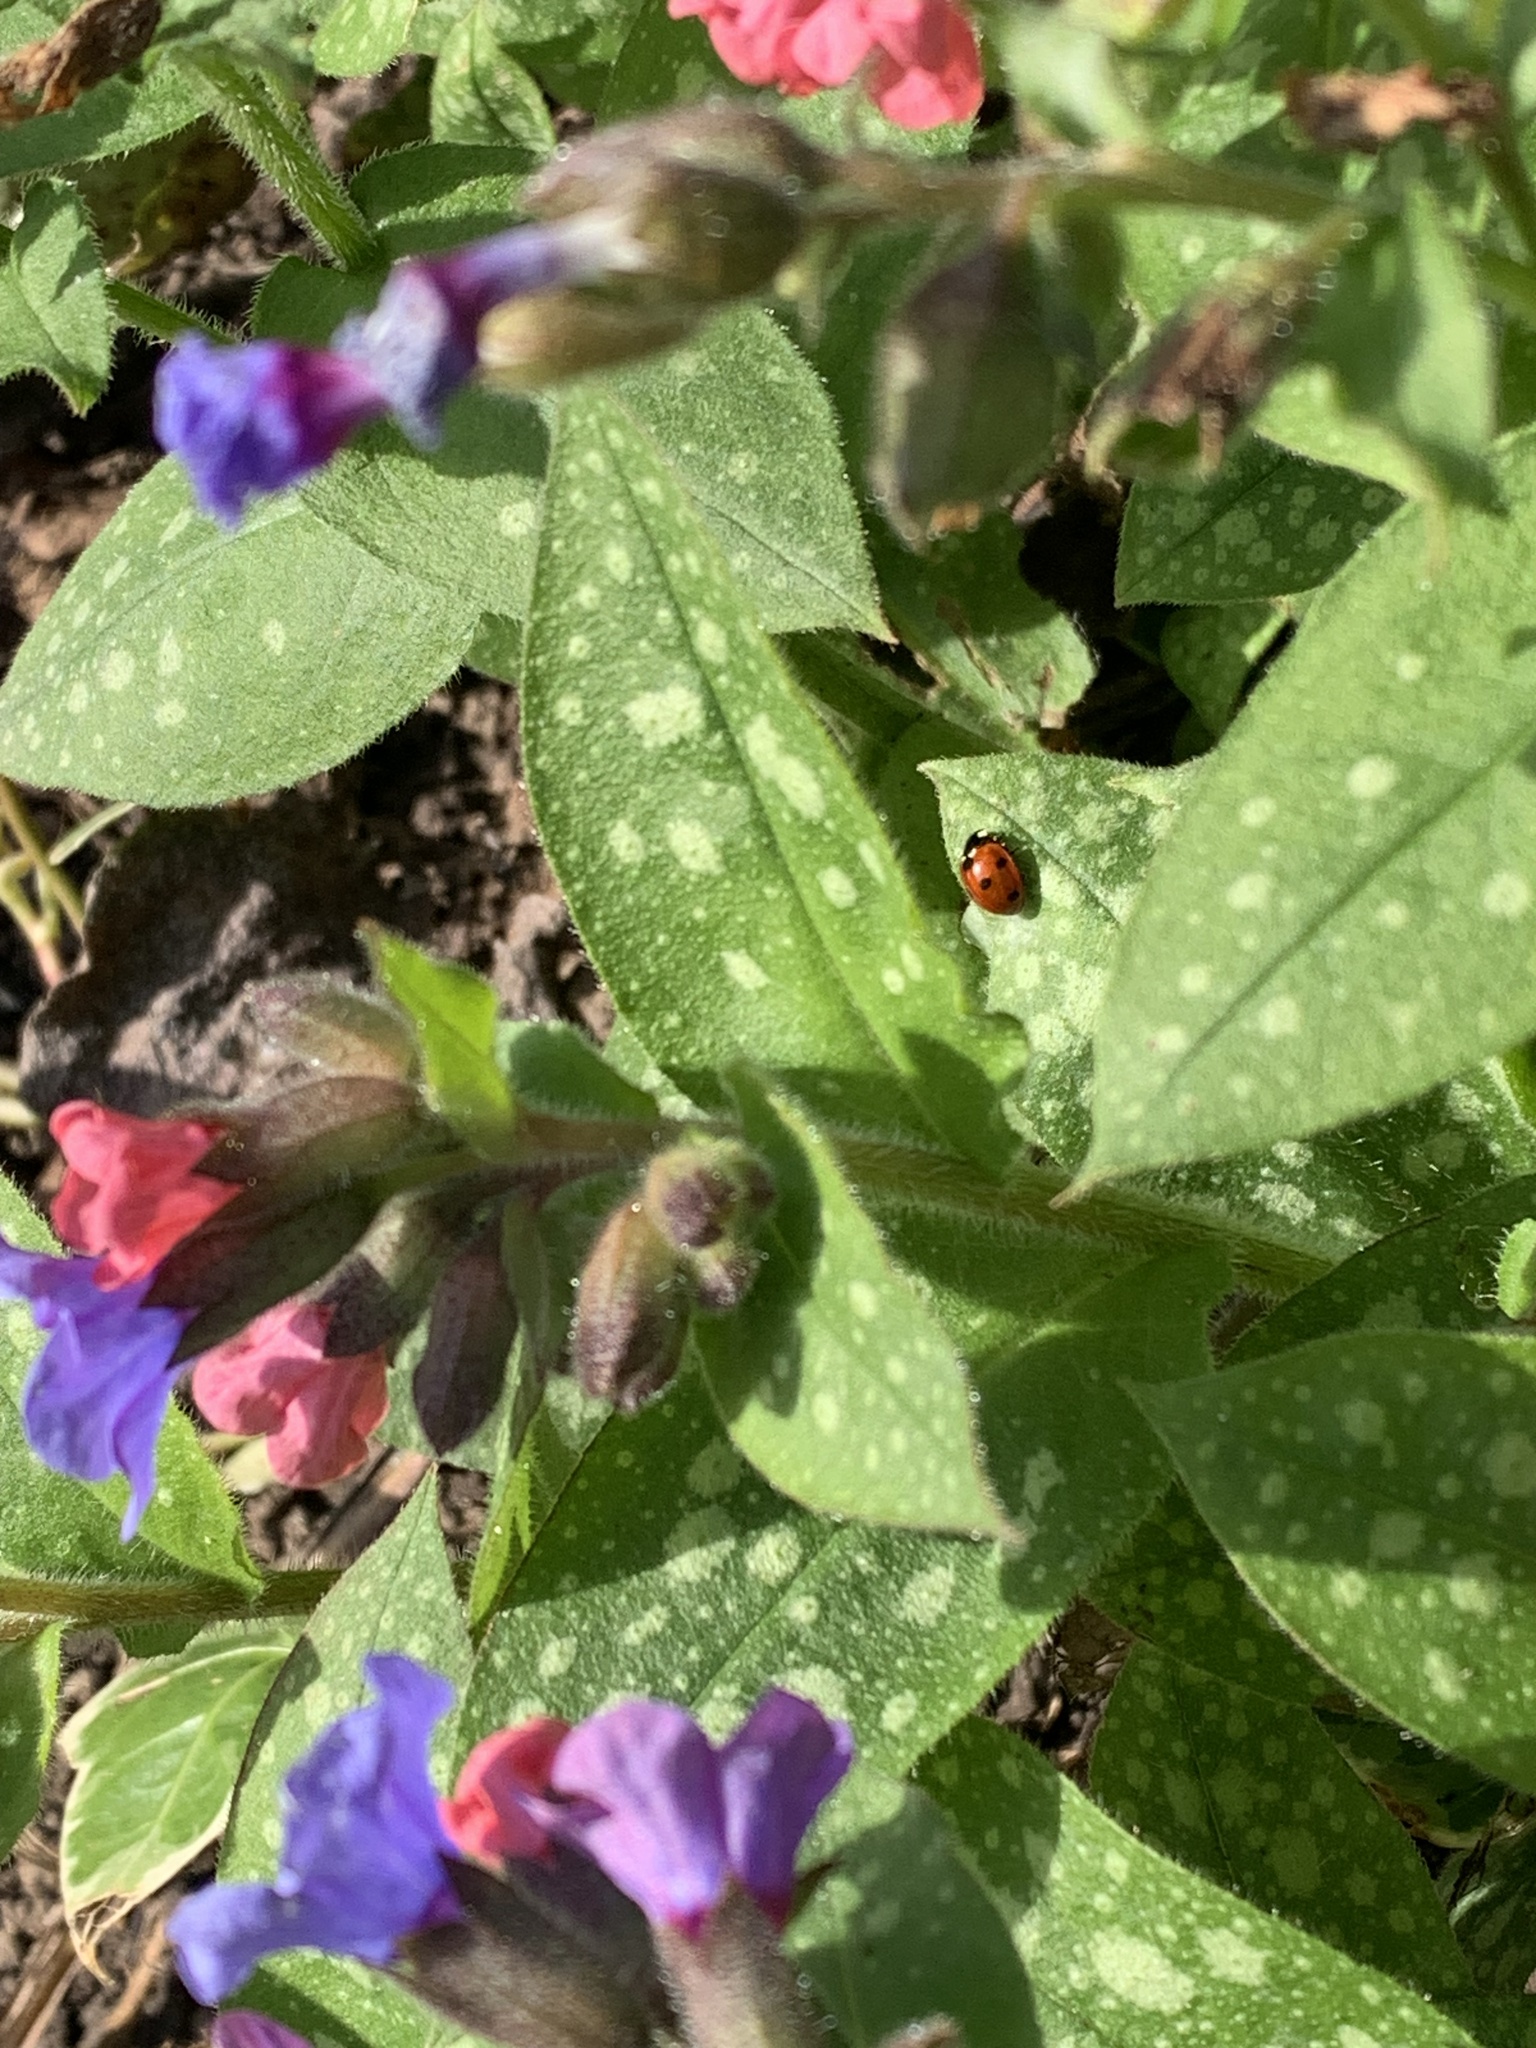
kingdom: Animalia
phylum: Arthropoda
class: Insecta
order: Coleoptera
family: Coccinellidae
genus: Coccinella
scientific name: Coccinella septempunctata
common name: Sevenspotted lady beetle
